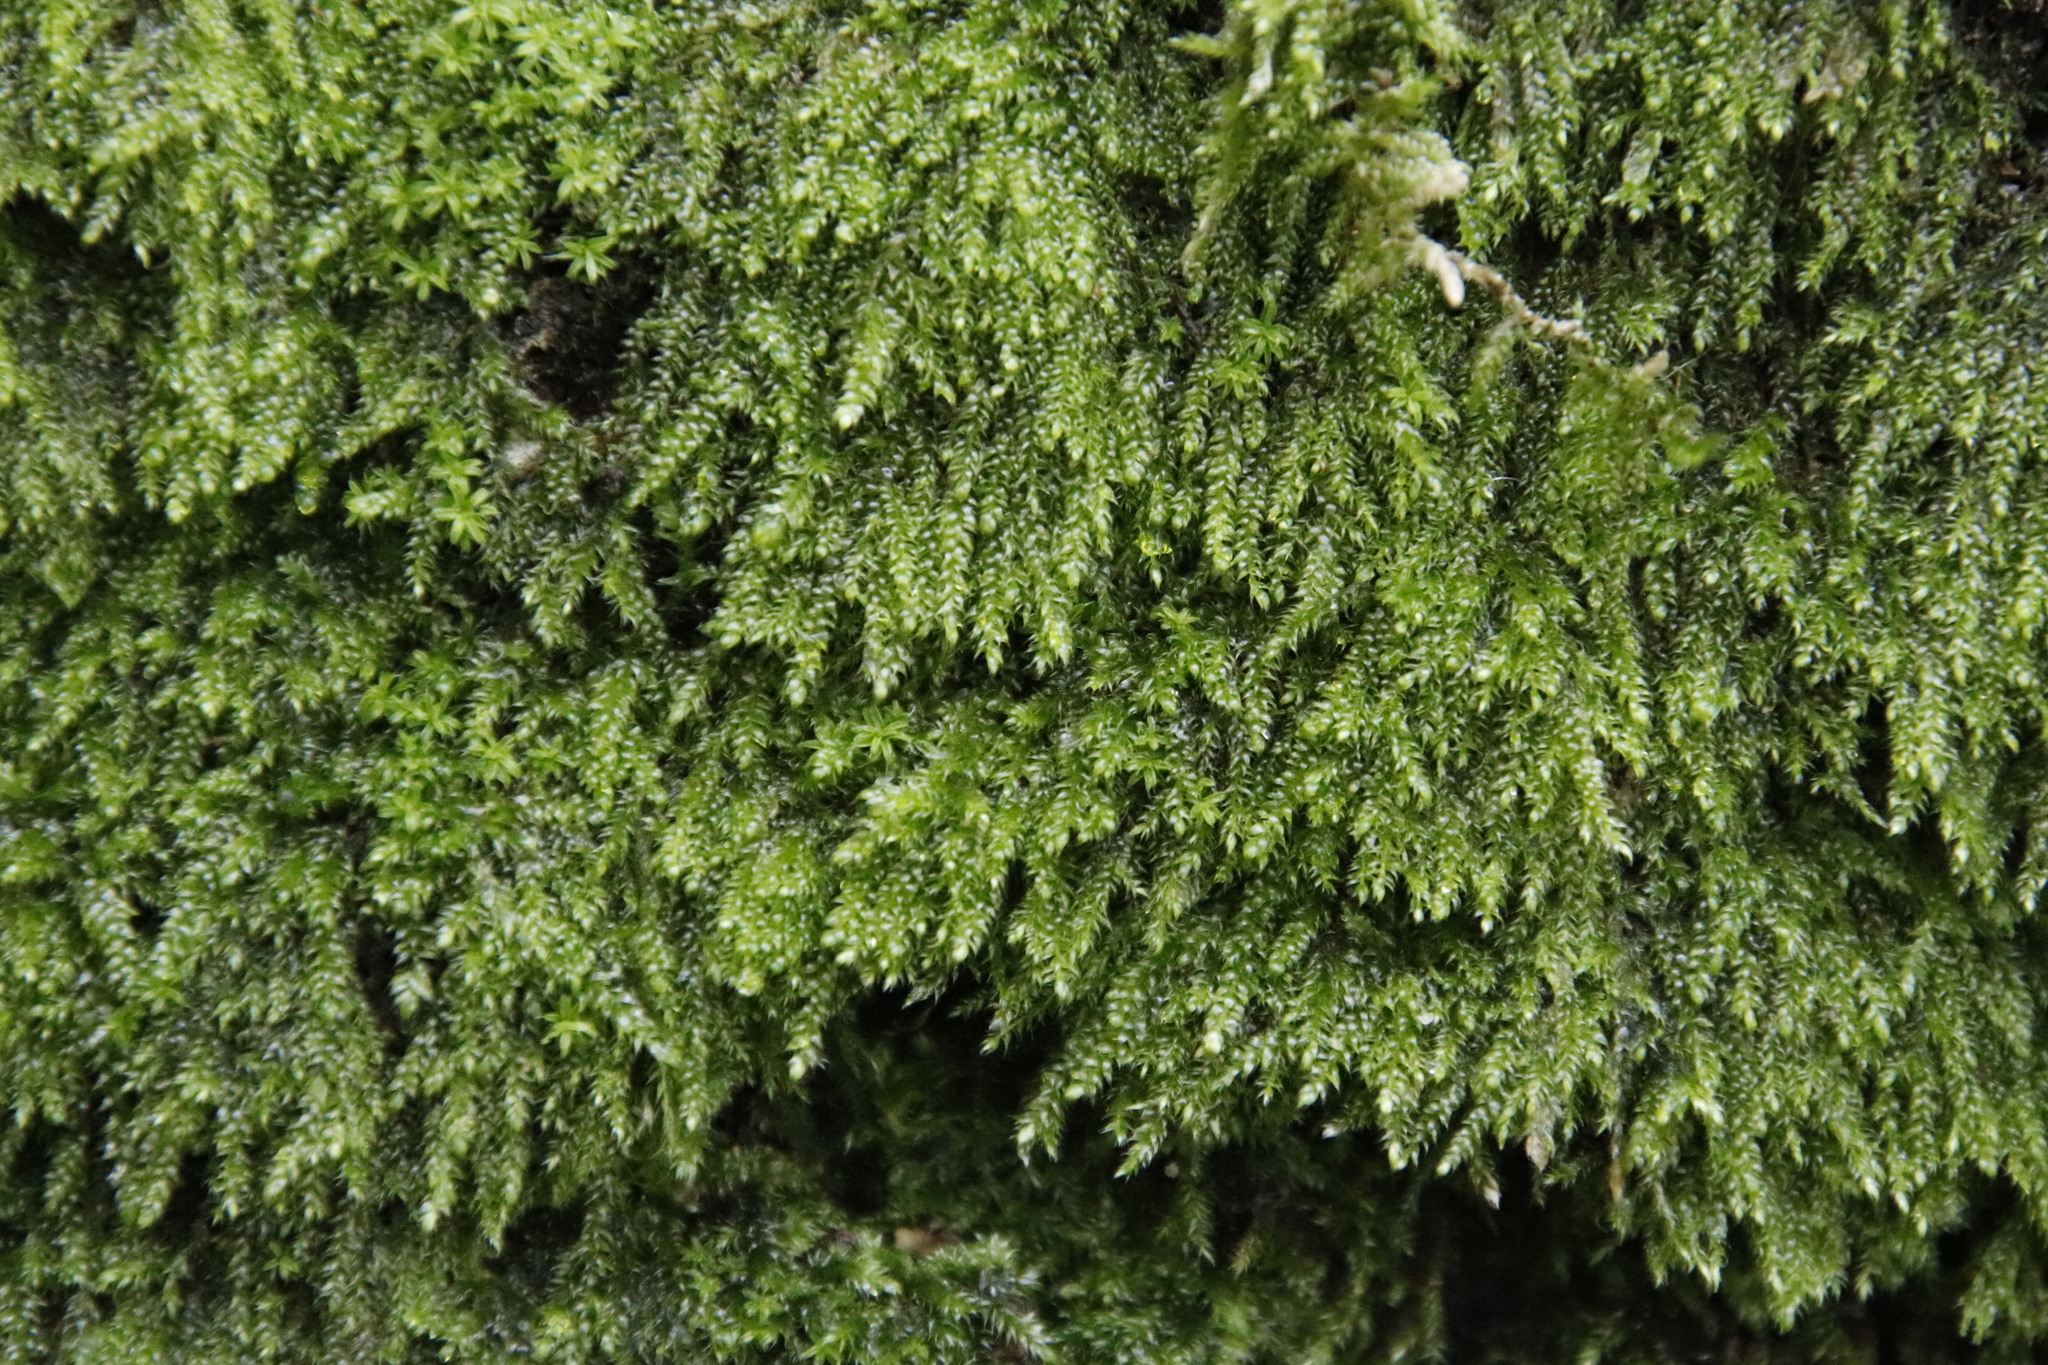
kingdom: Plantae
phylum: Bryophyta
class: Bryopsida
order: Hypnales
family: Hypnaceae
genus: Hypnum
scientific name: Hypnum cupressiforme
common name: Cypress-leaved plait-moss
